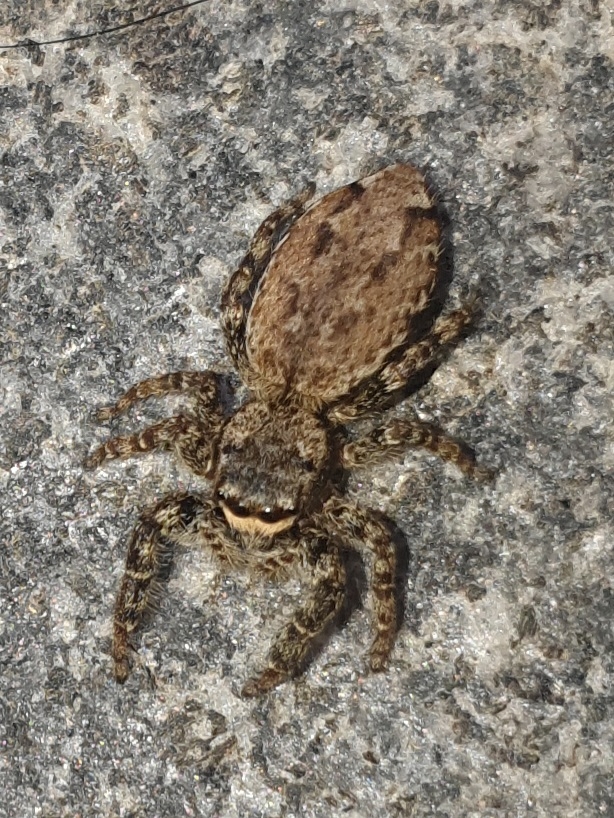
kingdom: Animalia
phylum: Arthropoda
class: Arachnida
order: Araneae
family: Salticidae
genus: Marpissa
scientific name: Marpissa muscosa
